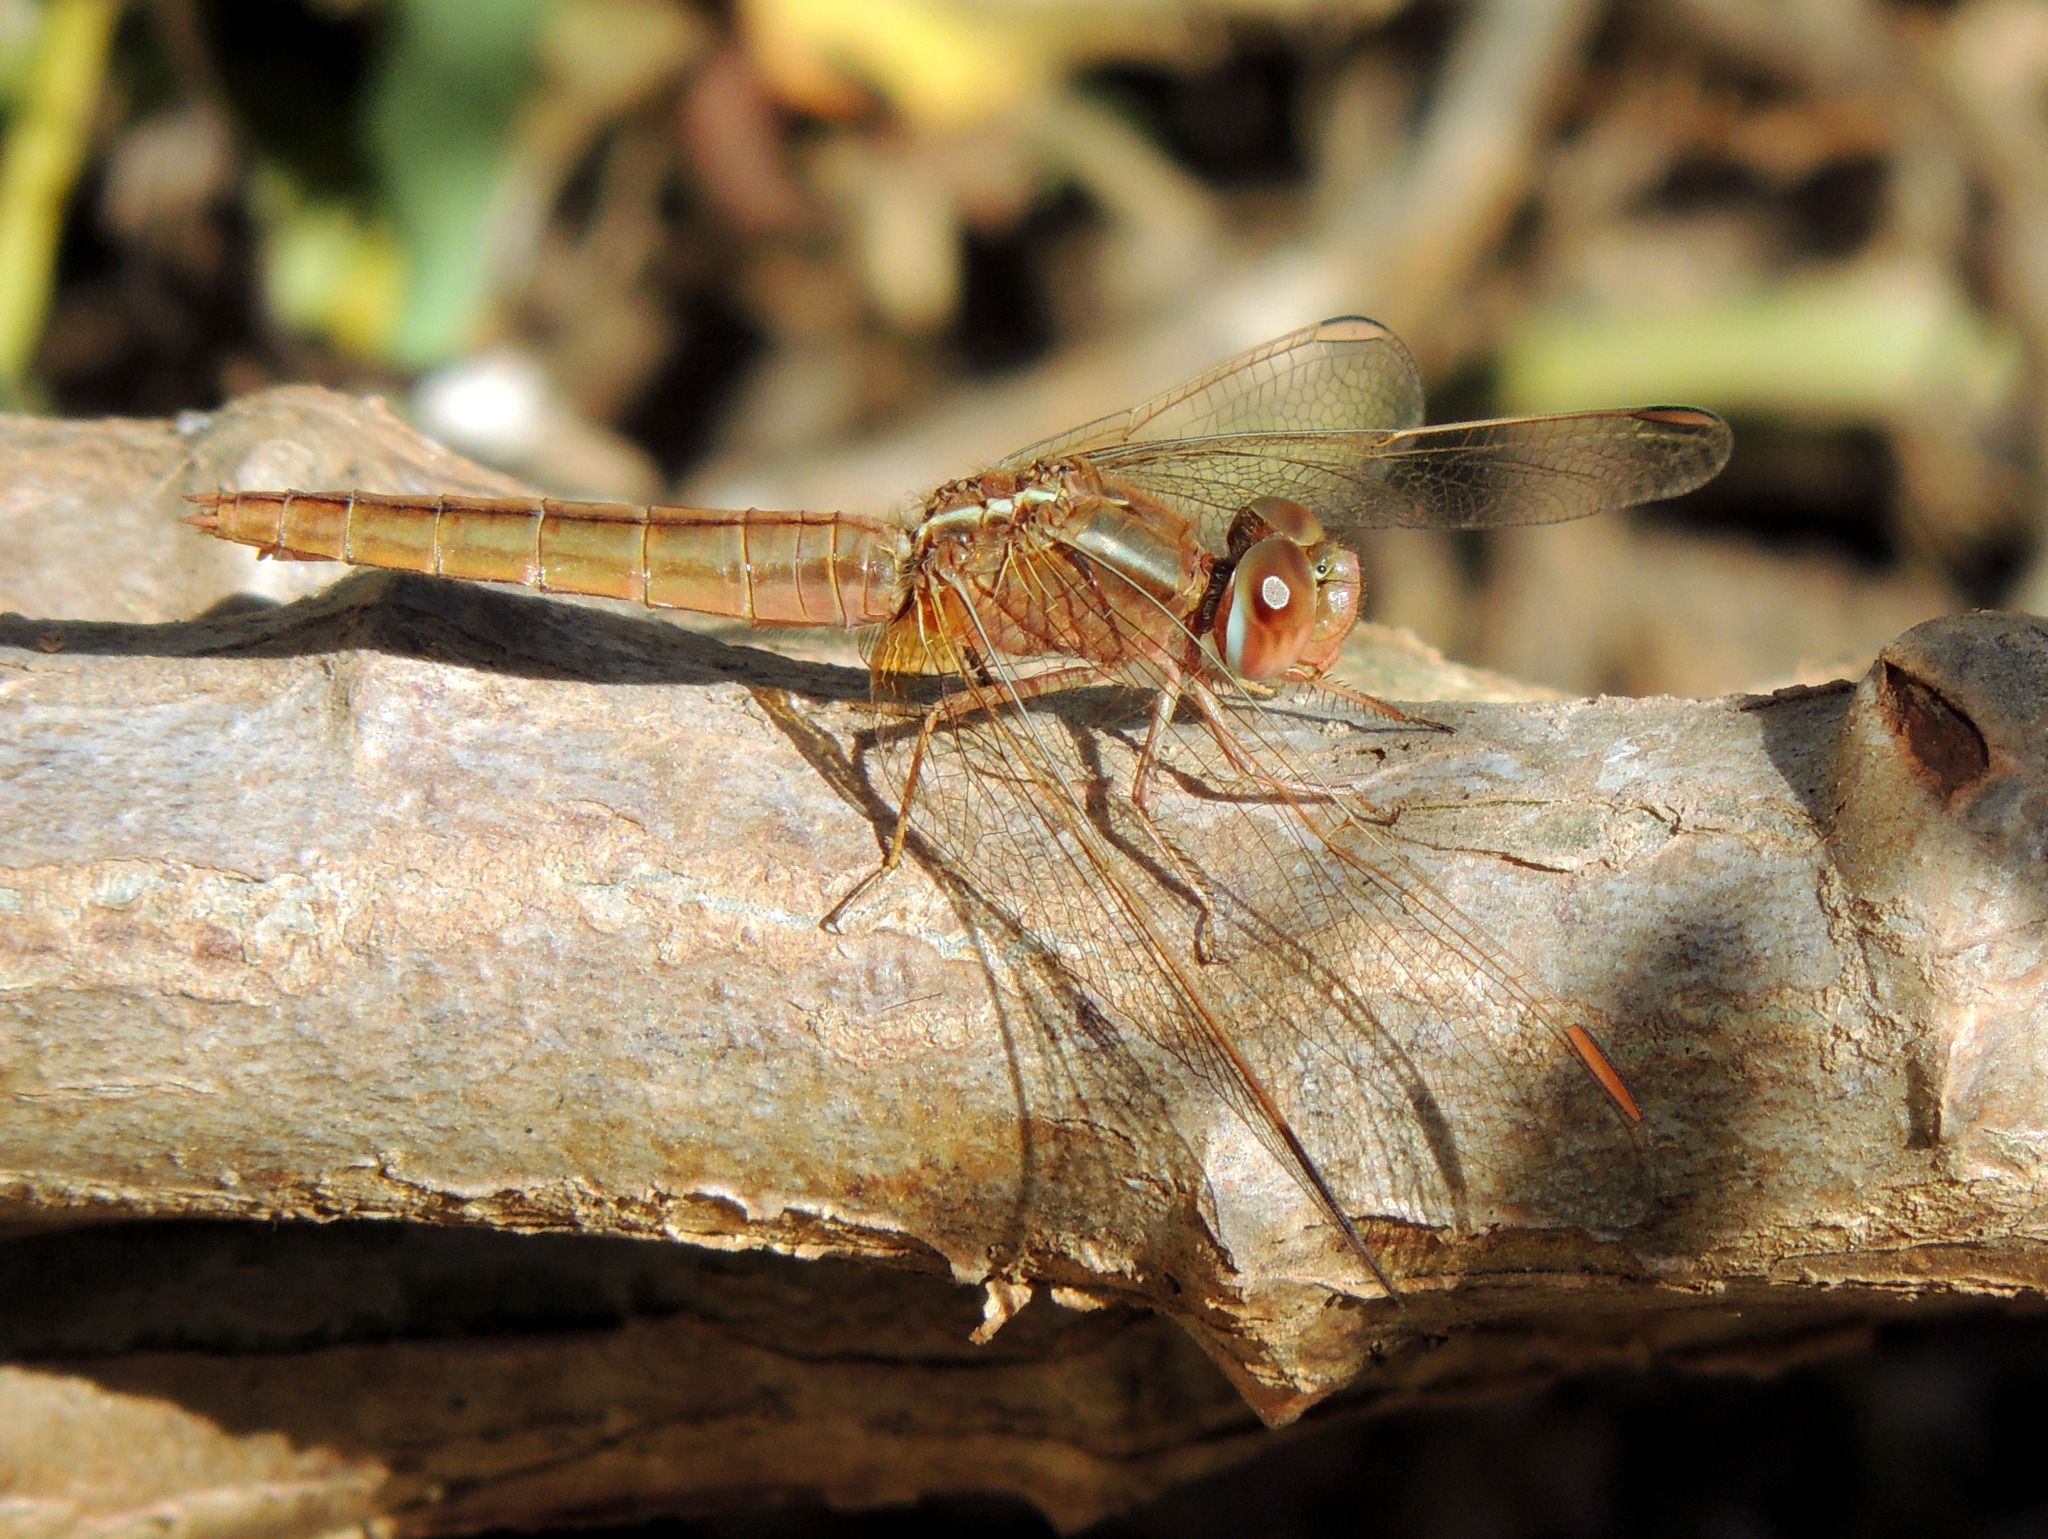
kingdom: Animalia
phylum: Arthropoda
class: Insecta
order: Odonata
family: Libellulidae
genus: Crocothemis
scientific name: Crocothemis erythraea
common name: Scarlet dragonfly
